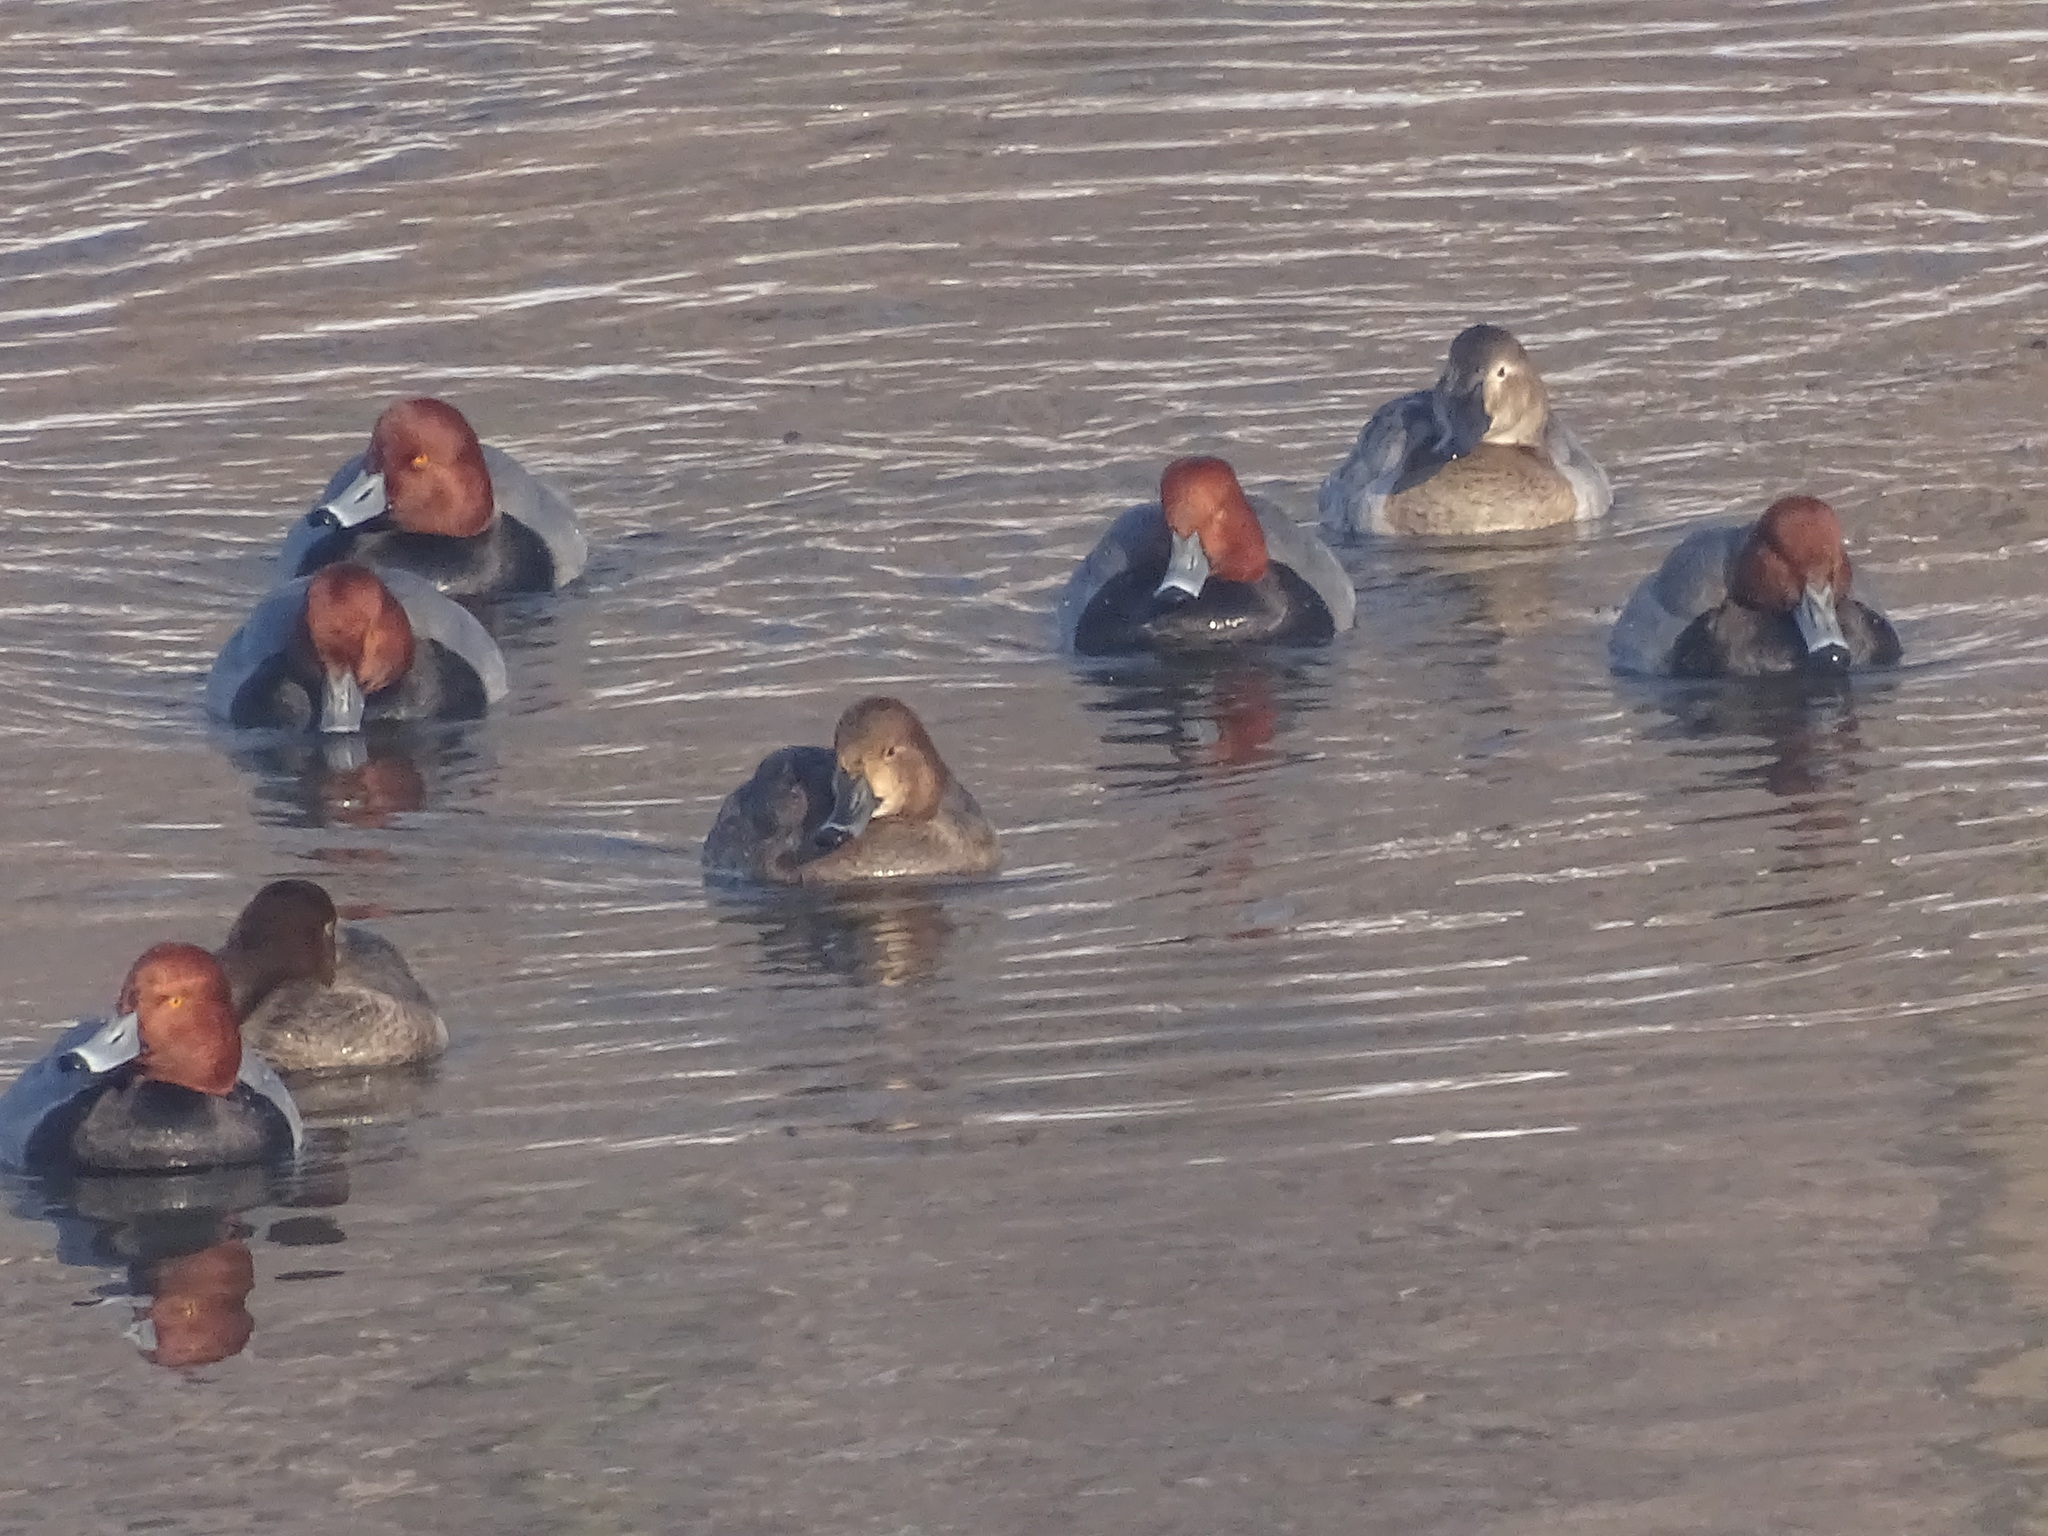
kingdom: Animalia
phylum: Chordata
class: Aves
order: Anseriformes
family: Anatidae
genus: Aythya
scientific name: Aythya americana
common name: Redhead
